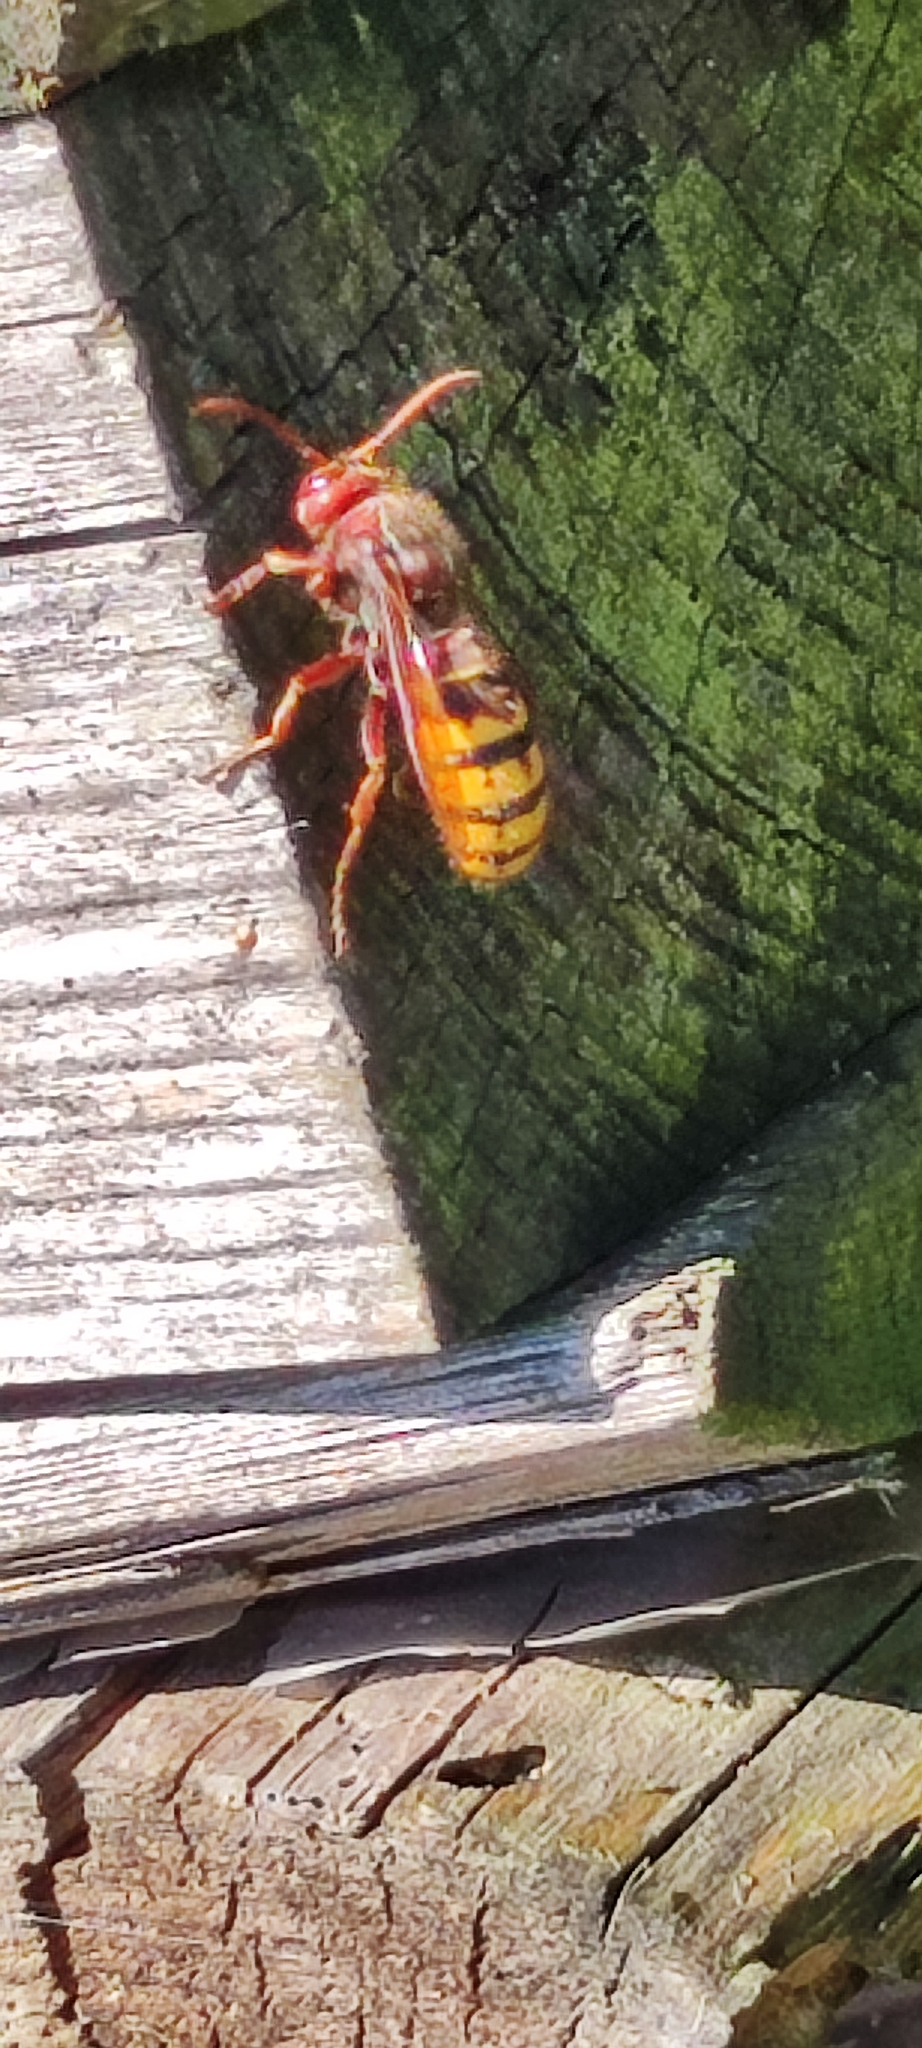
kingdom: Animalia
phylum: Arthropoda
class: Insecta
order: Hymenoptera
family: Vespidae
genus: Vespa
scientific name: Vespa crabro
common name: Hornet
